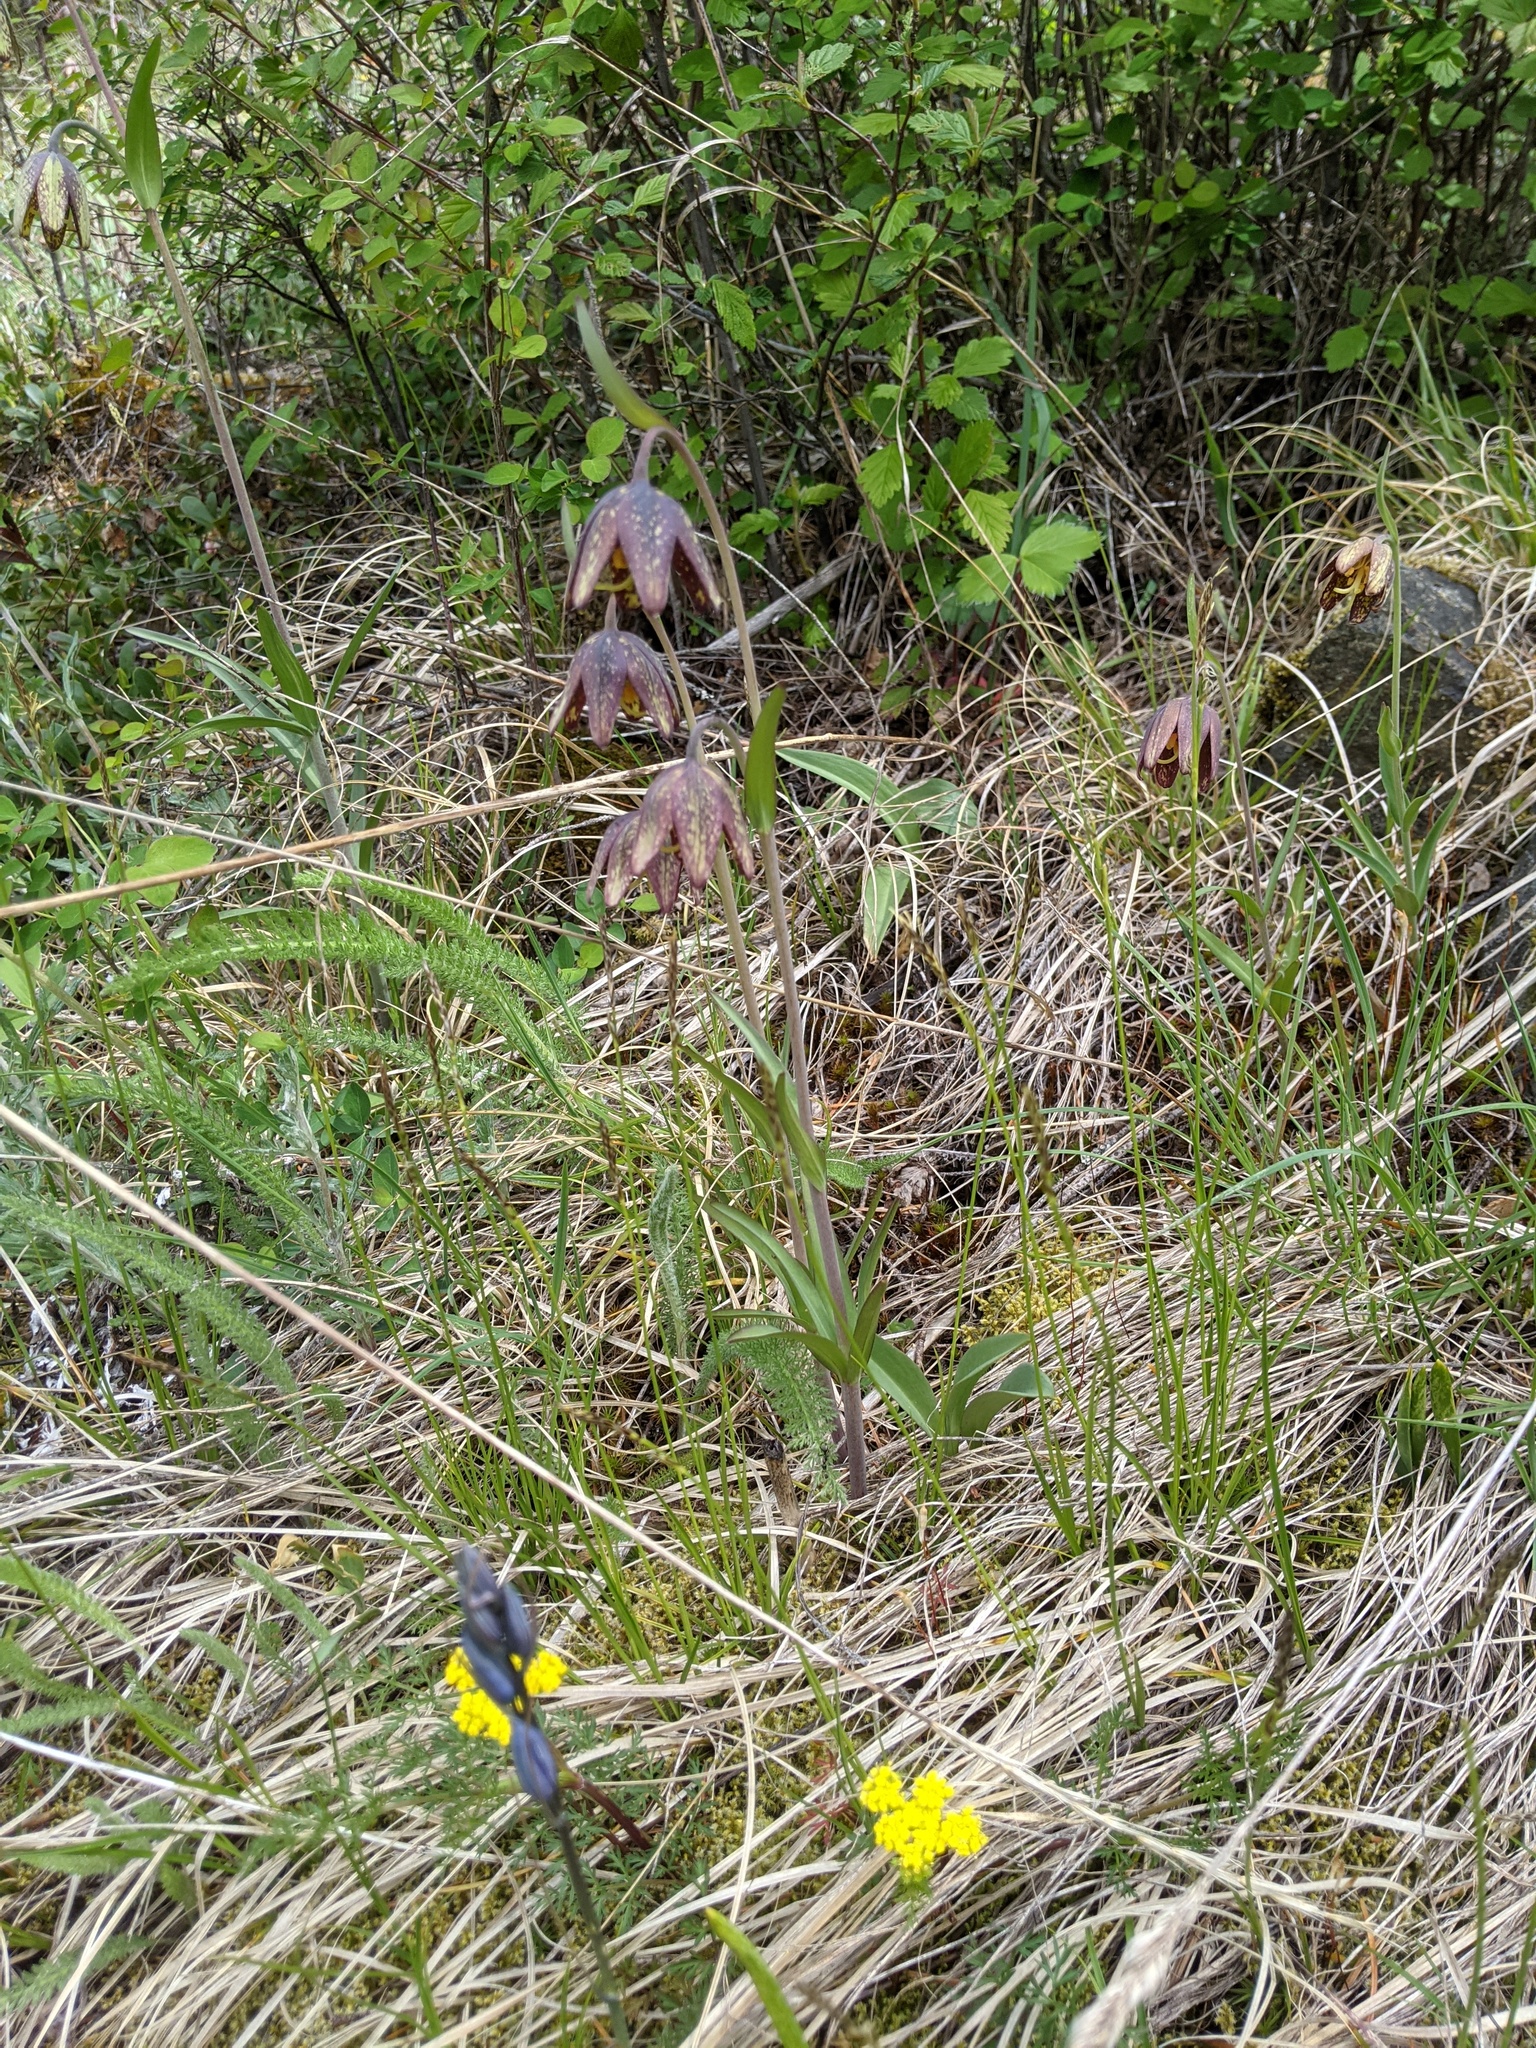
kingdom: Plantae
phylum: Tracheophyta
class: Liliopsida
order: Liliales
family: Liliaceae
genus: Fritillaria
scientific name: Fritillaria affinis
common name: Ojai fritillary
